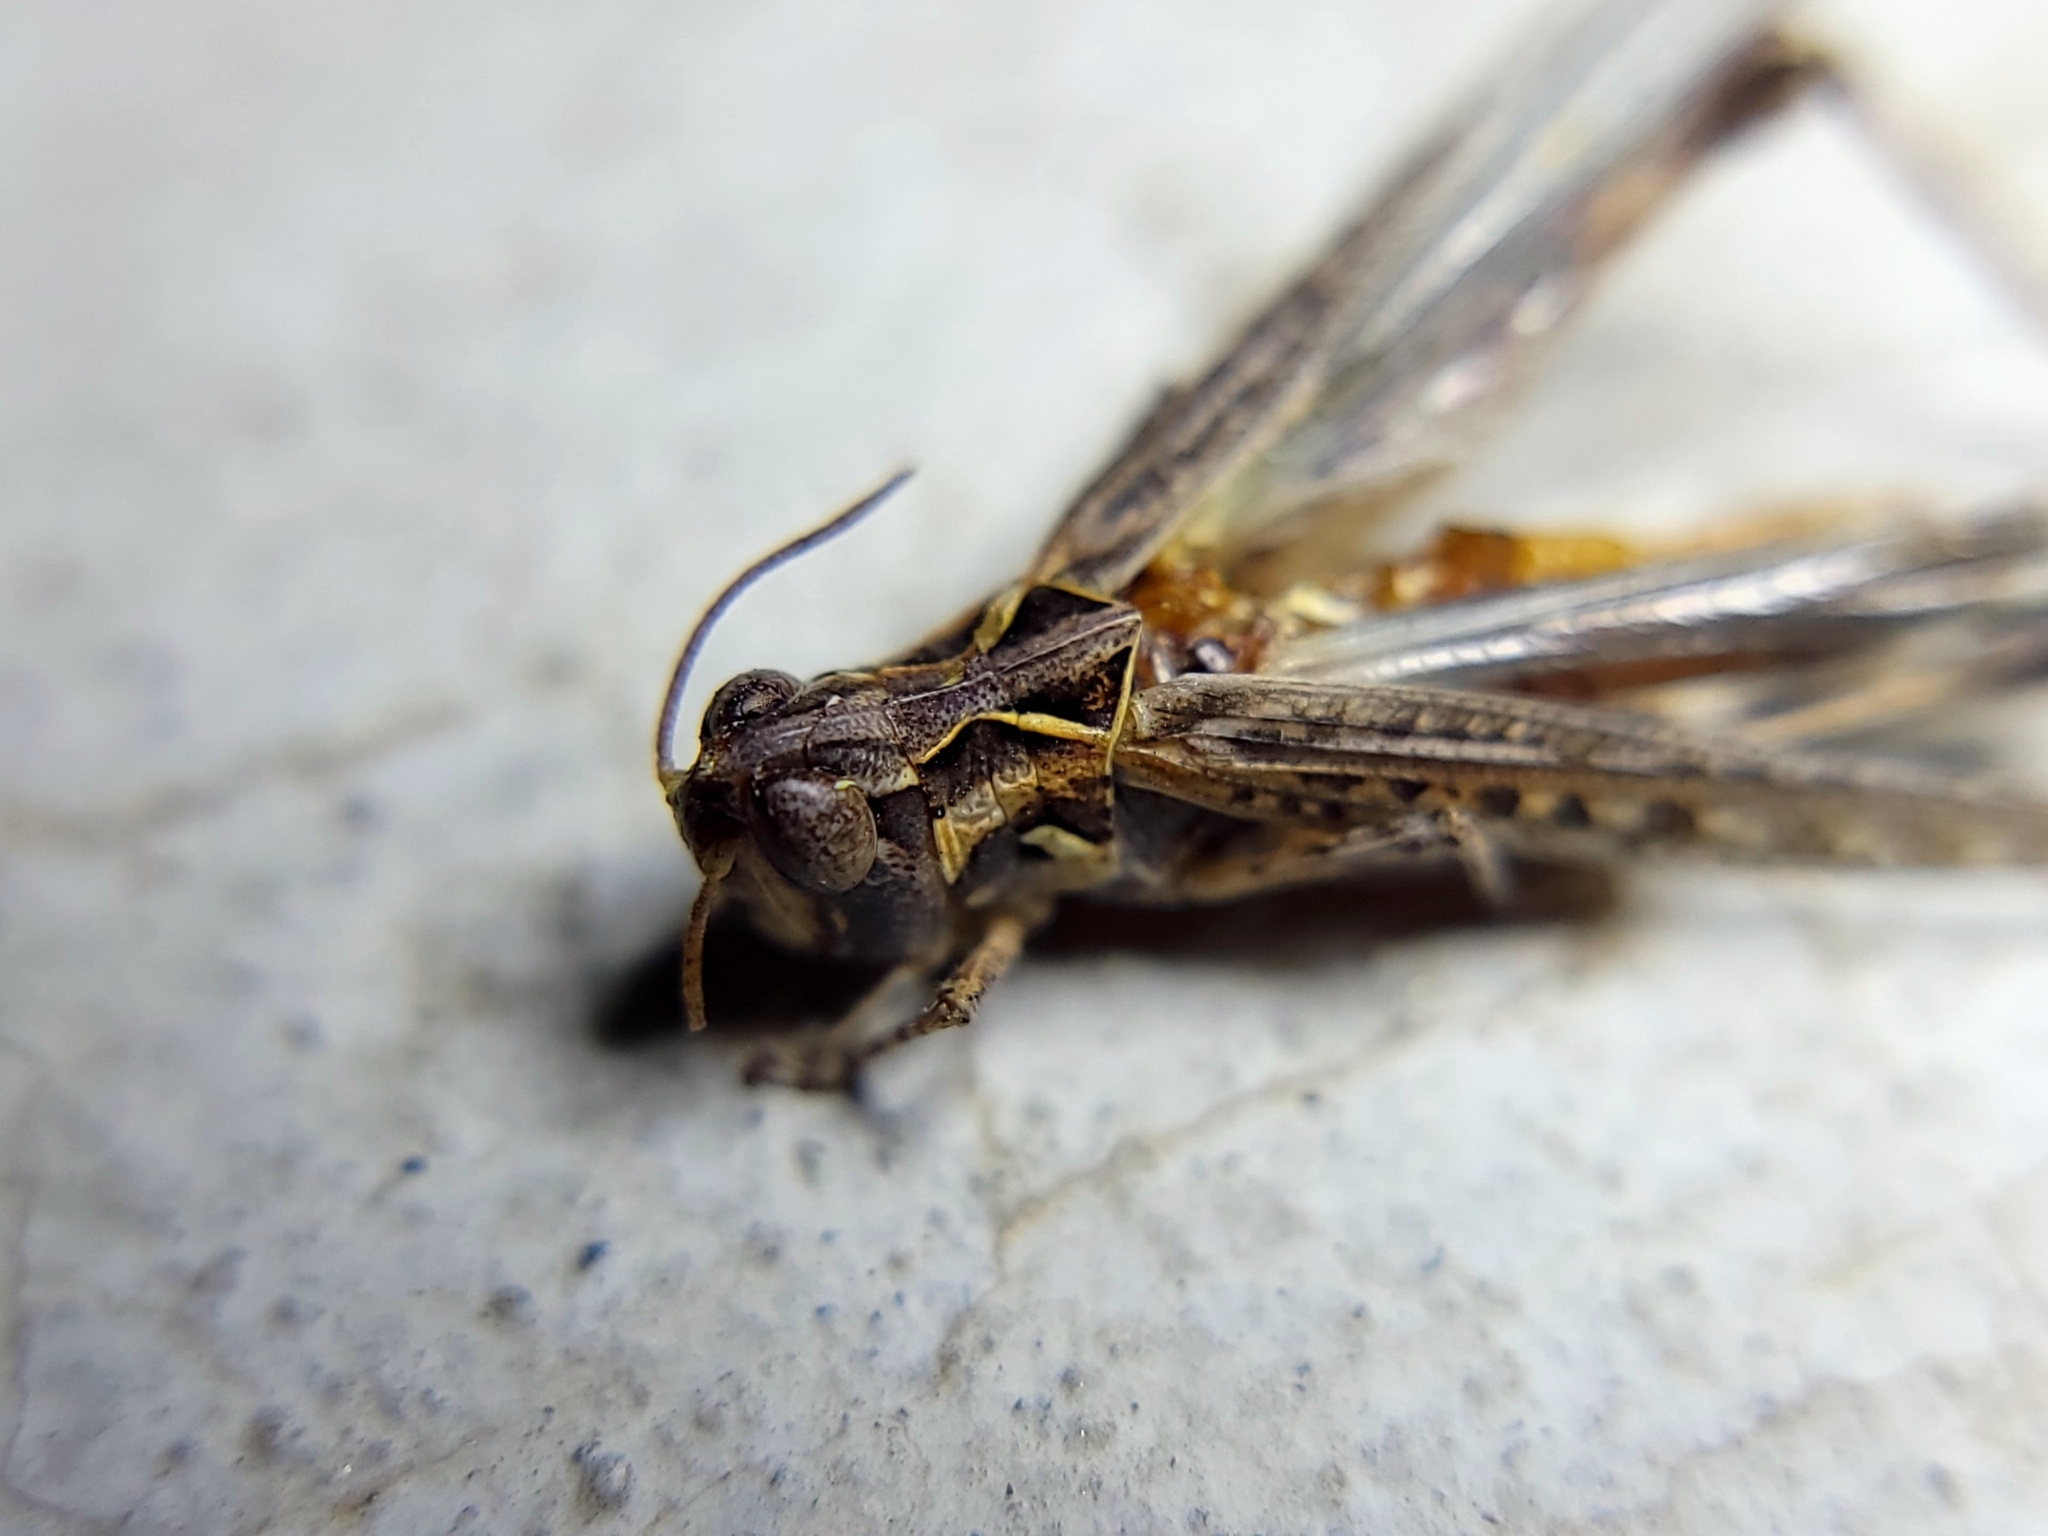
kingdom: Animalia
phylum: Arthropoda
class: Insecta
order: Orthoptera
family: Acrididae
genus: Psoloessa
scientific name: Psoloessa texana
